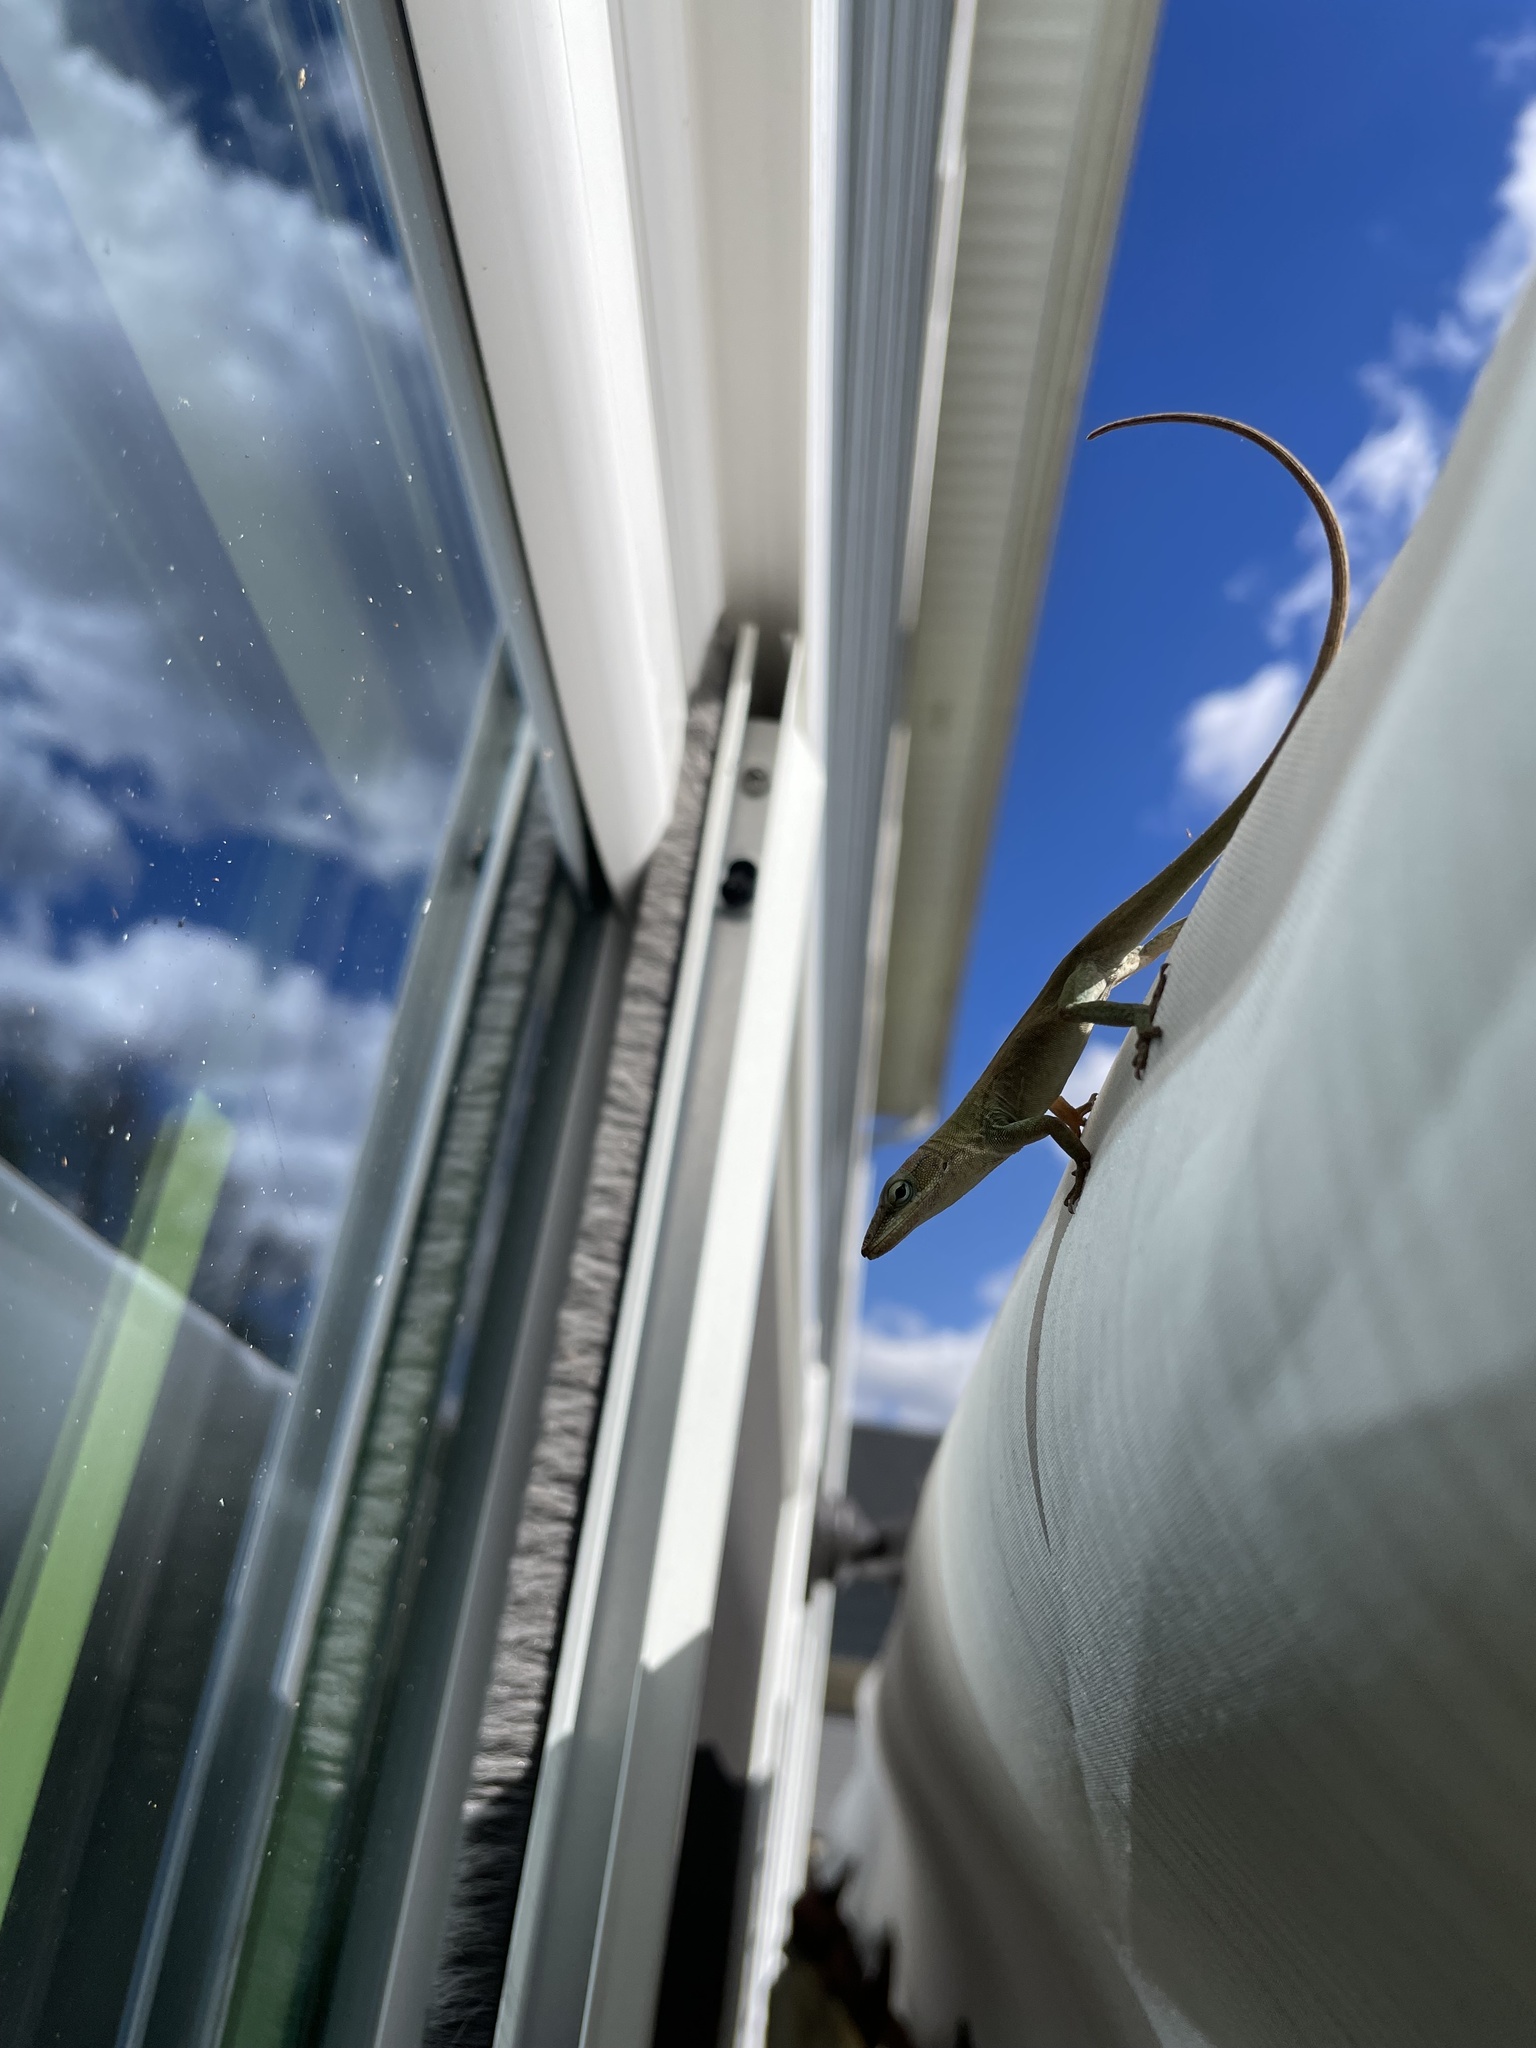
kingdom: Animalia
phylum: Chordata
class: Squamata
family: Dactyloidae
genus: Anolis
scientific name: Anolis carolinensis
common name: Green anole
